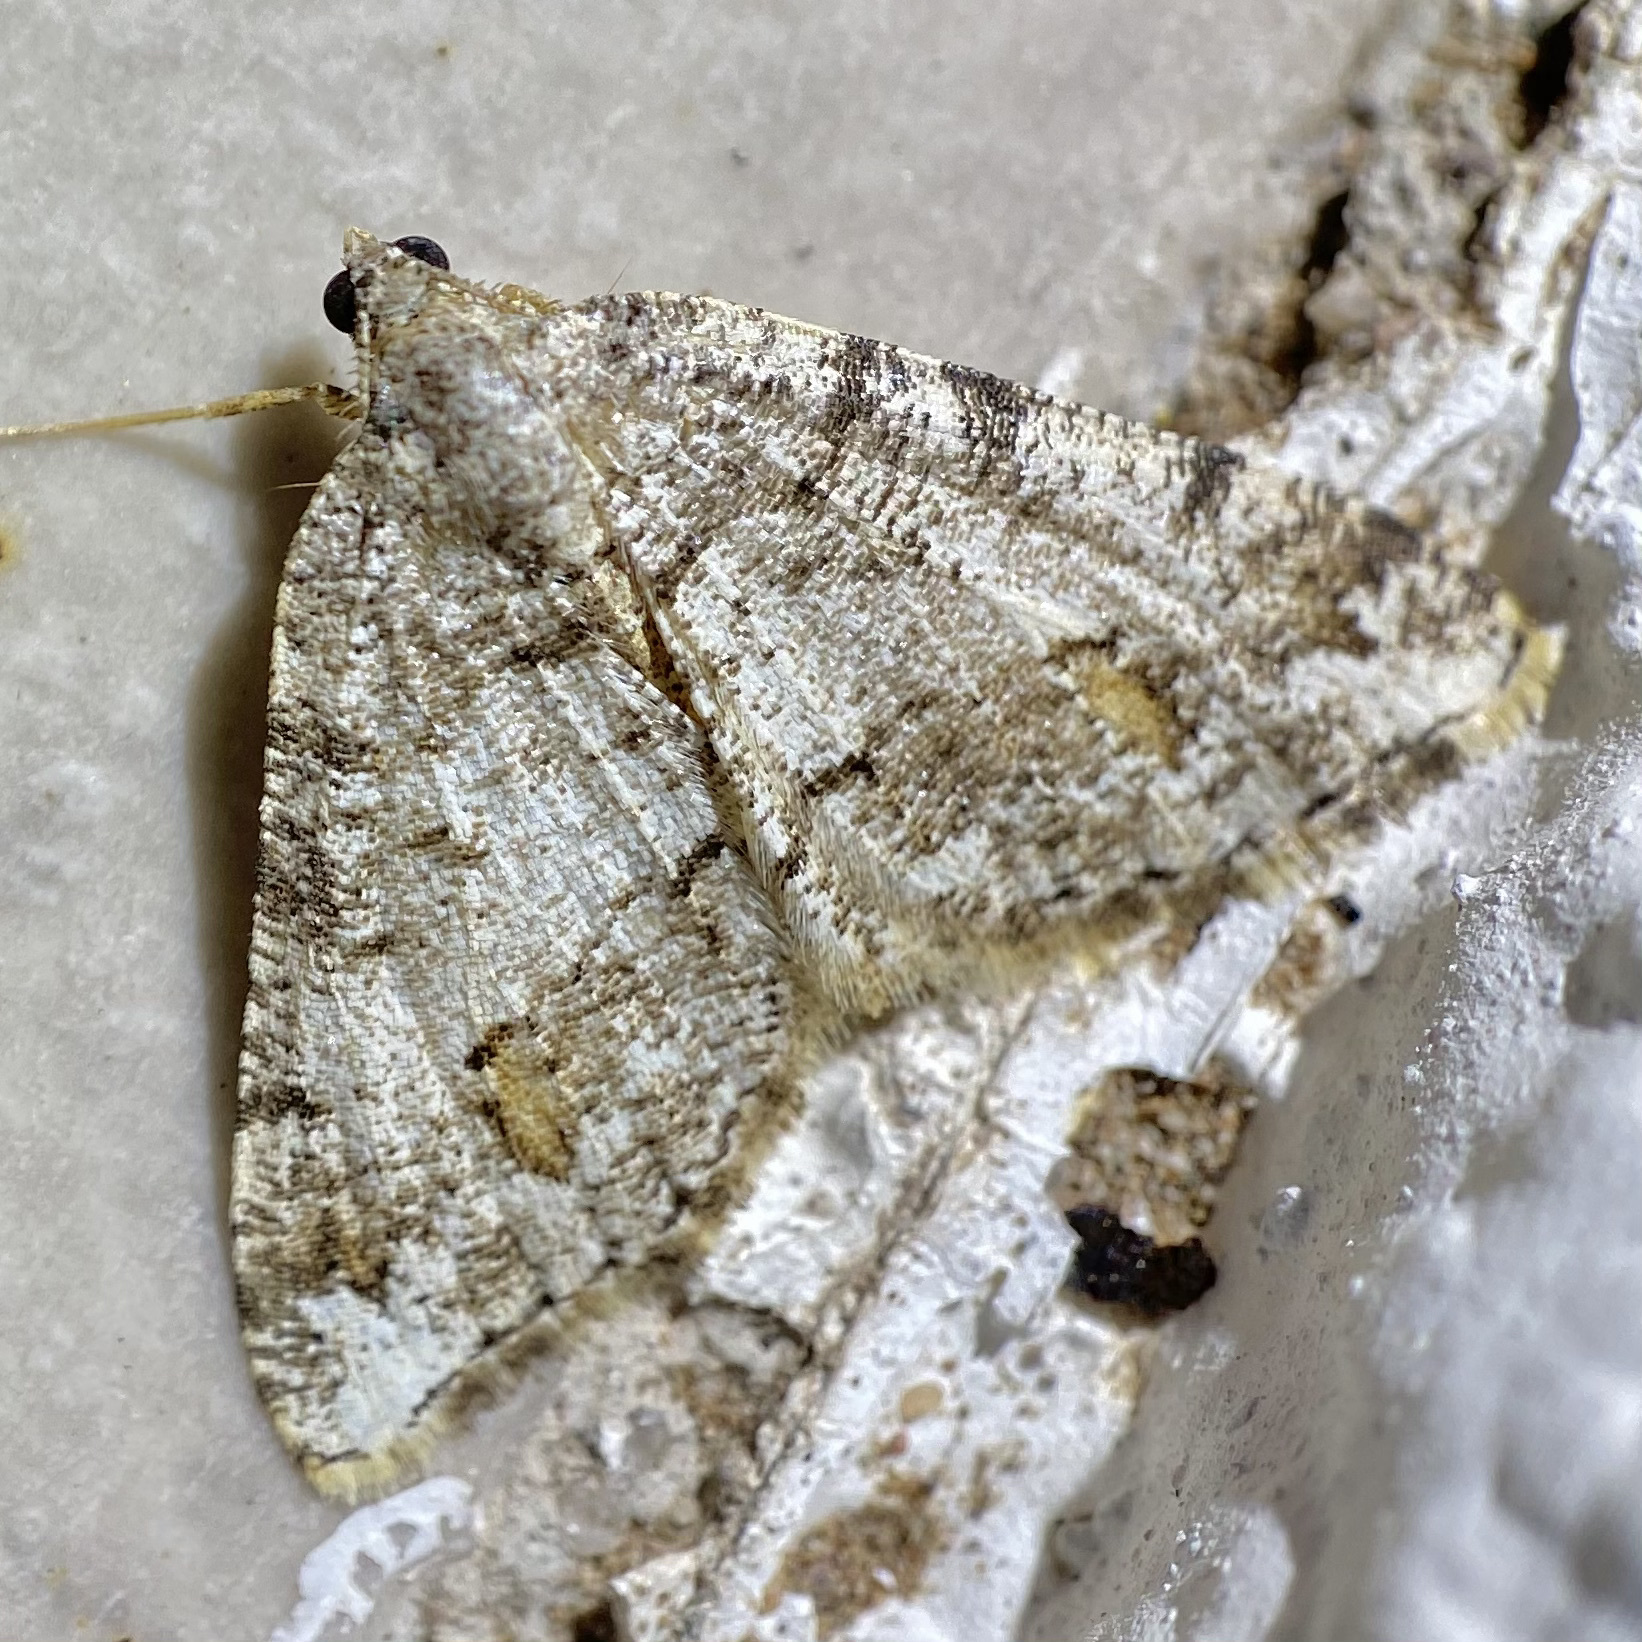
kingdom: Animalia
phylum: Arthropoda
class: Insecta
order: Lepidoptera
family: Geometridae
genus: Macaria
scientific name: Macaria deceptrix
